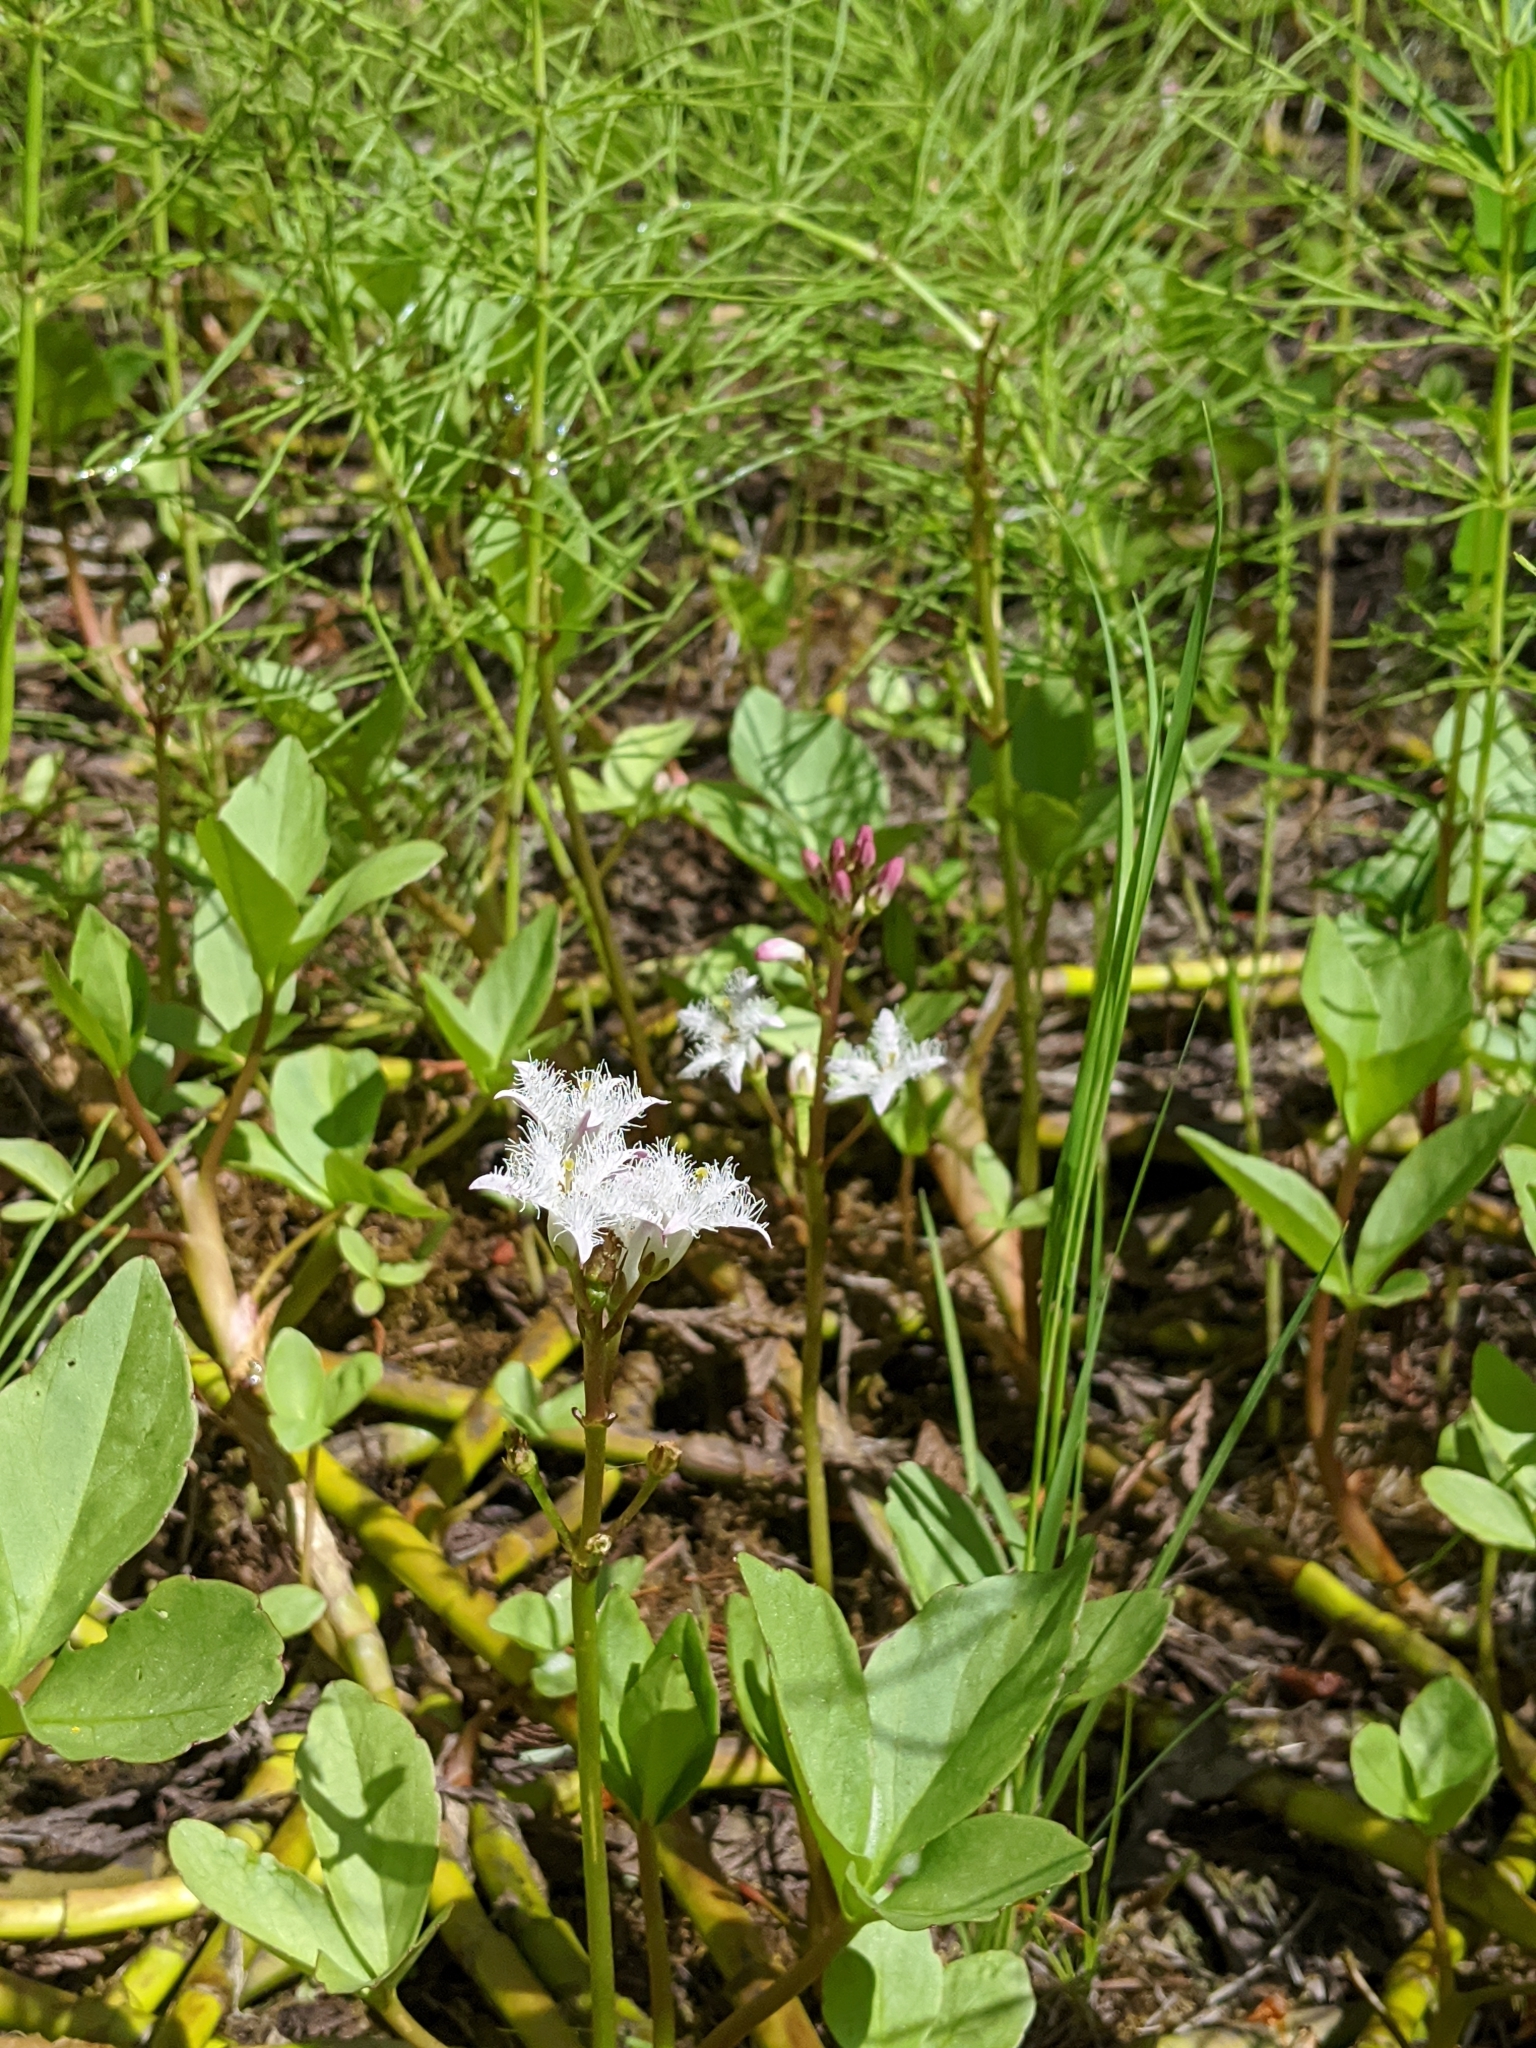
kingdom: Plantae
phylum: Tracheophyta
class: Magnoliopsida
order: Asterales
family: Menyanthaceae
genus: Menyanthes
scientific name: Menyanthes trifoliata
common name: Bogbean
